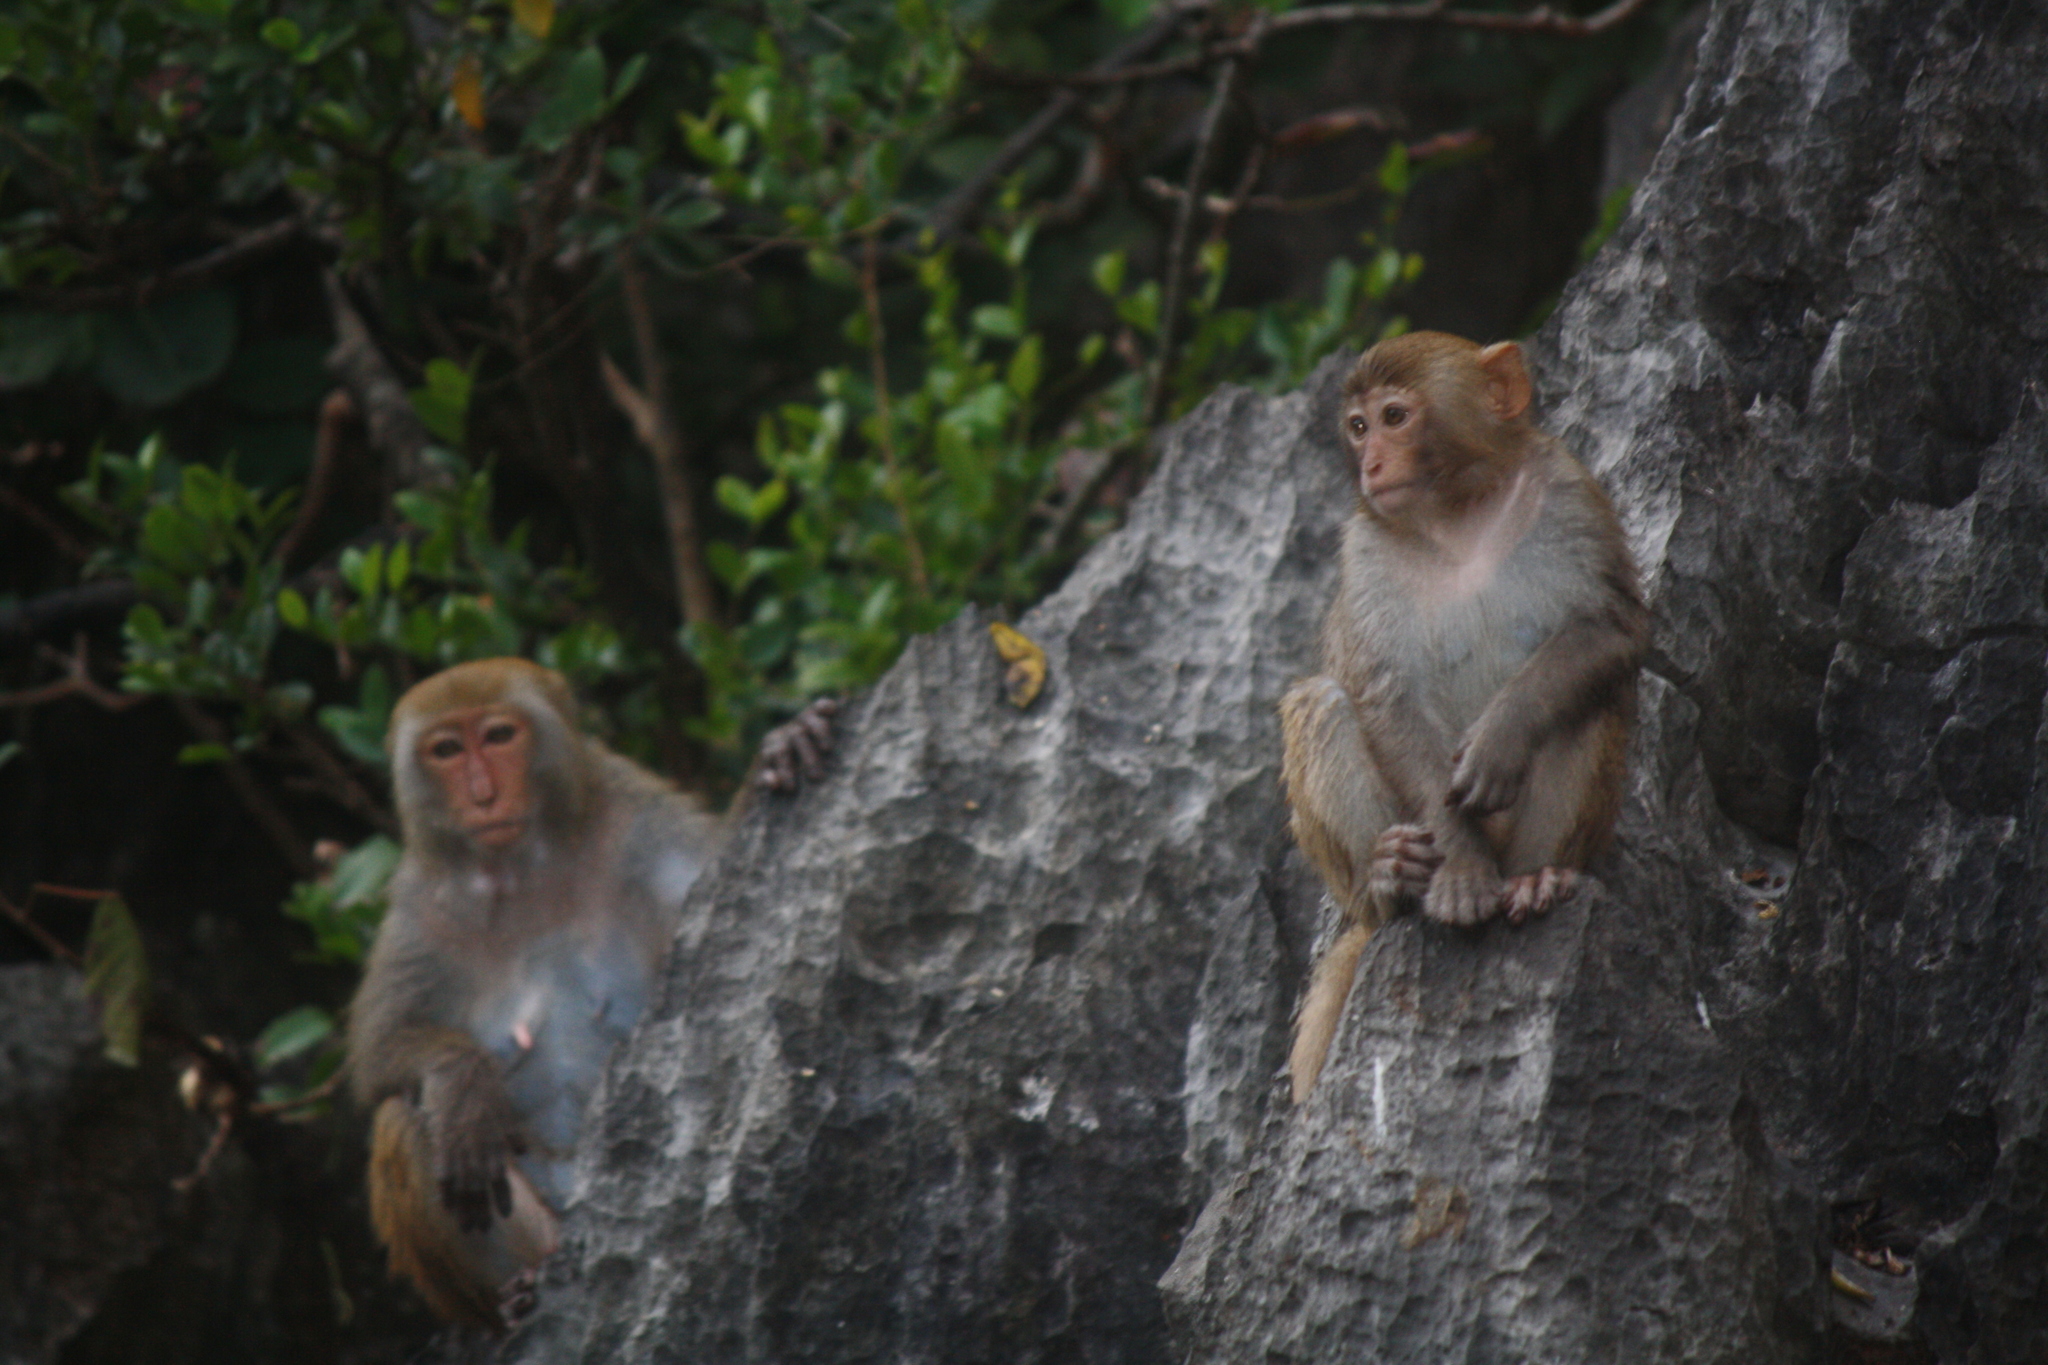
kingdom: Animalia
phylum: Chordata
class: Mammalia
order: Primates
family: Cercopithecidae
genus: Macaca
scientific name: Macaca mulatta
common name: Rhesus monkey
